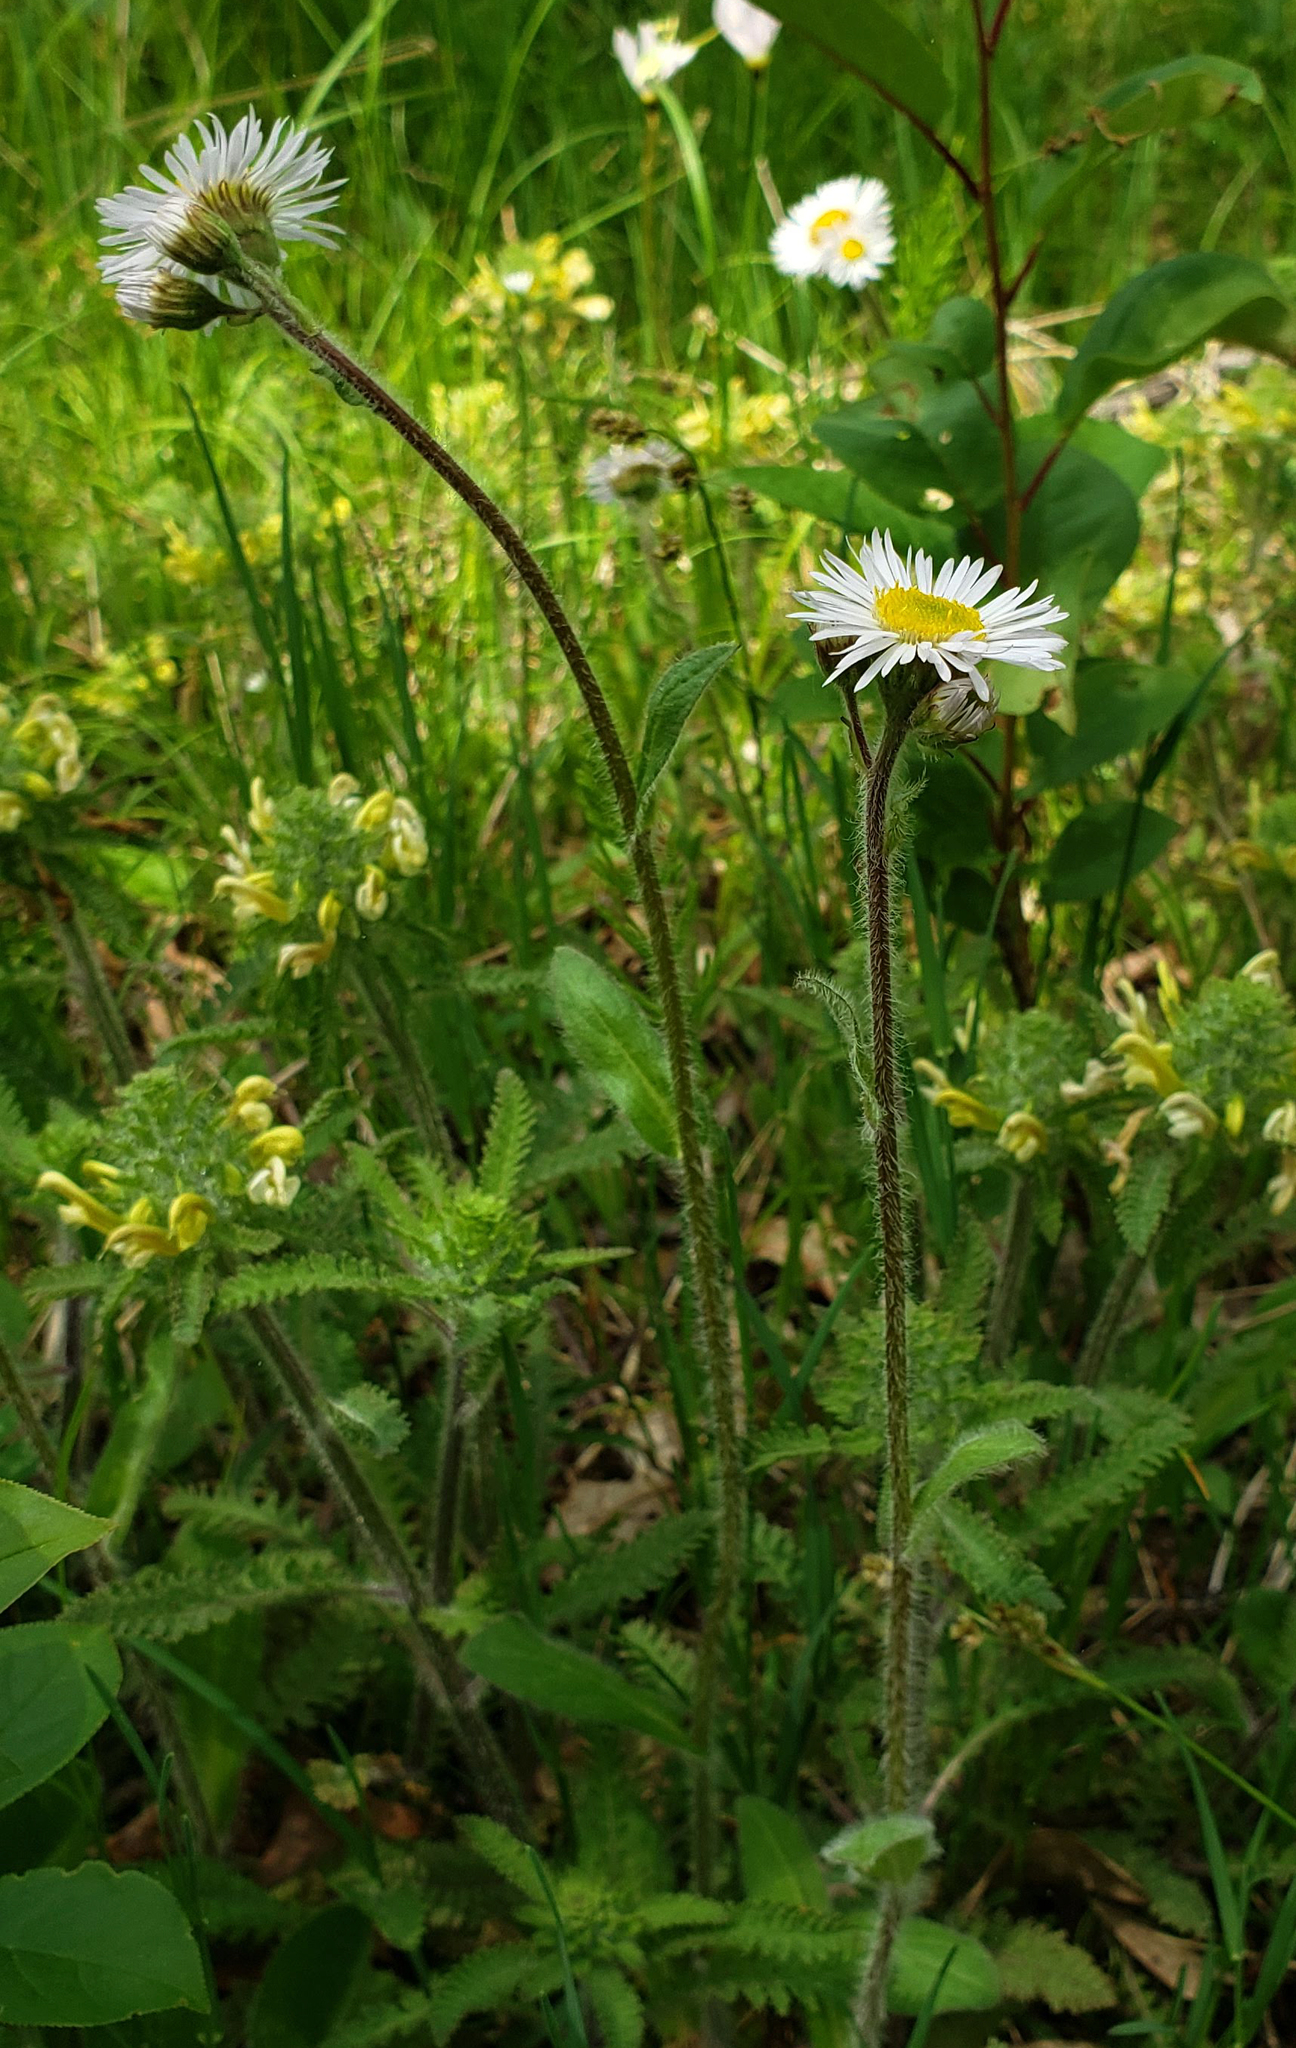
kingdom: Plantae
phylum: Tracheophyta
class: Magnoliopsida
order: Asterales
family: Asteraceae
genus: Erigeron
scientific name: Erigeron pulchellus
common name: Hairy fleabane
